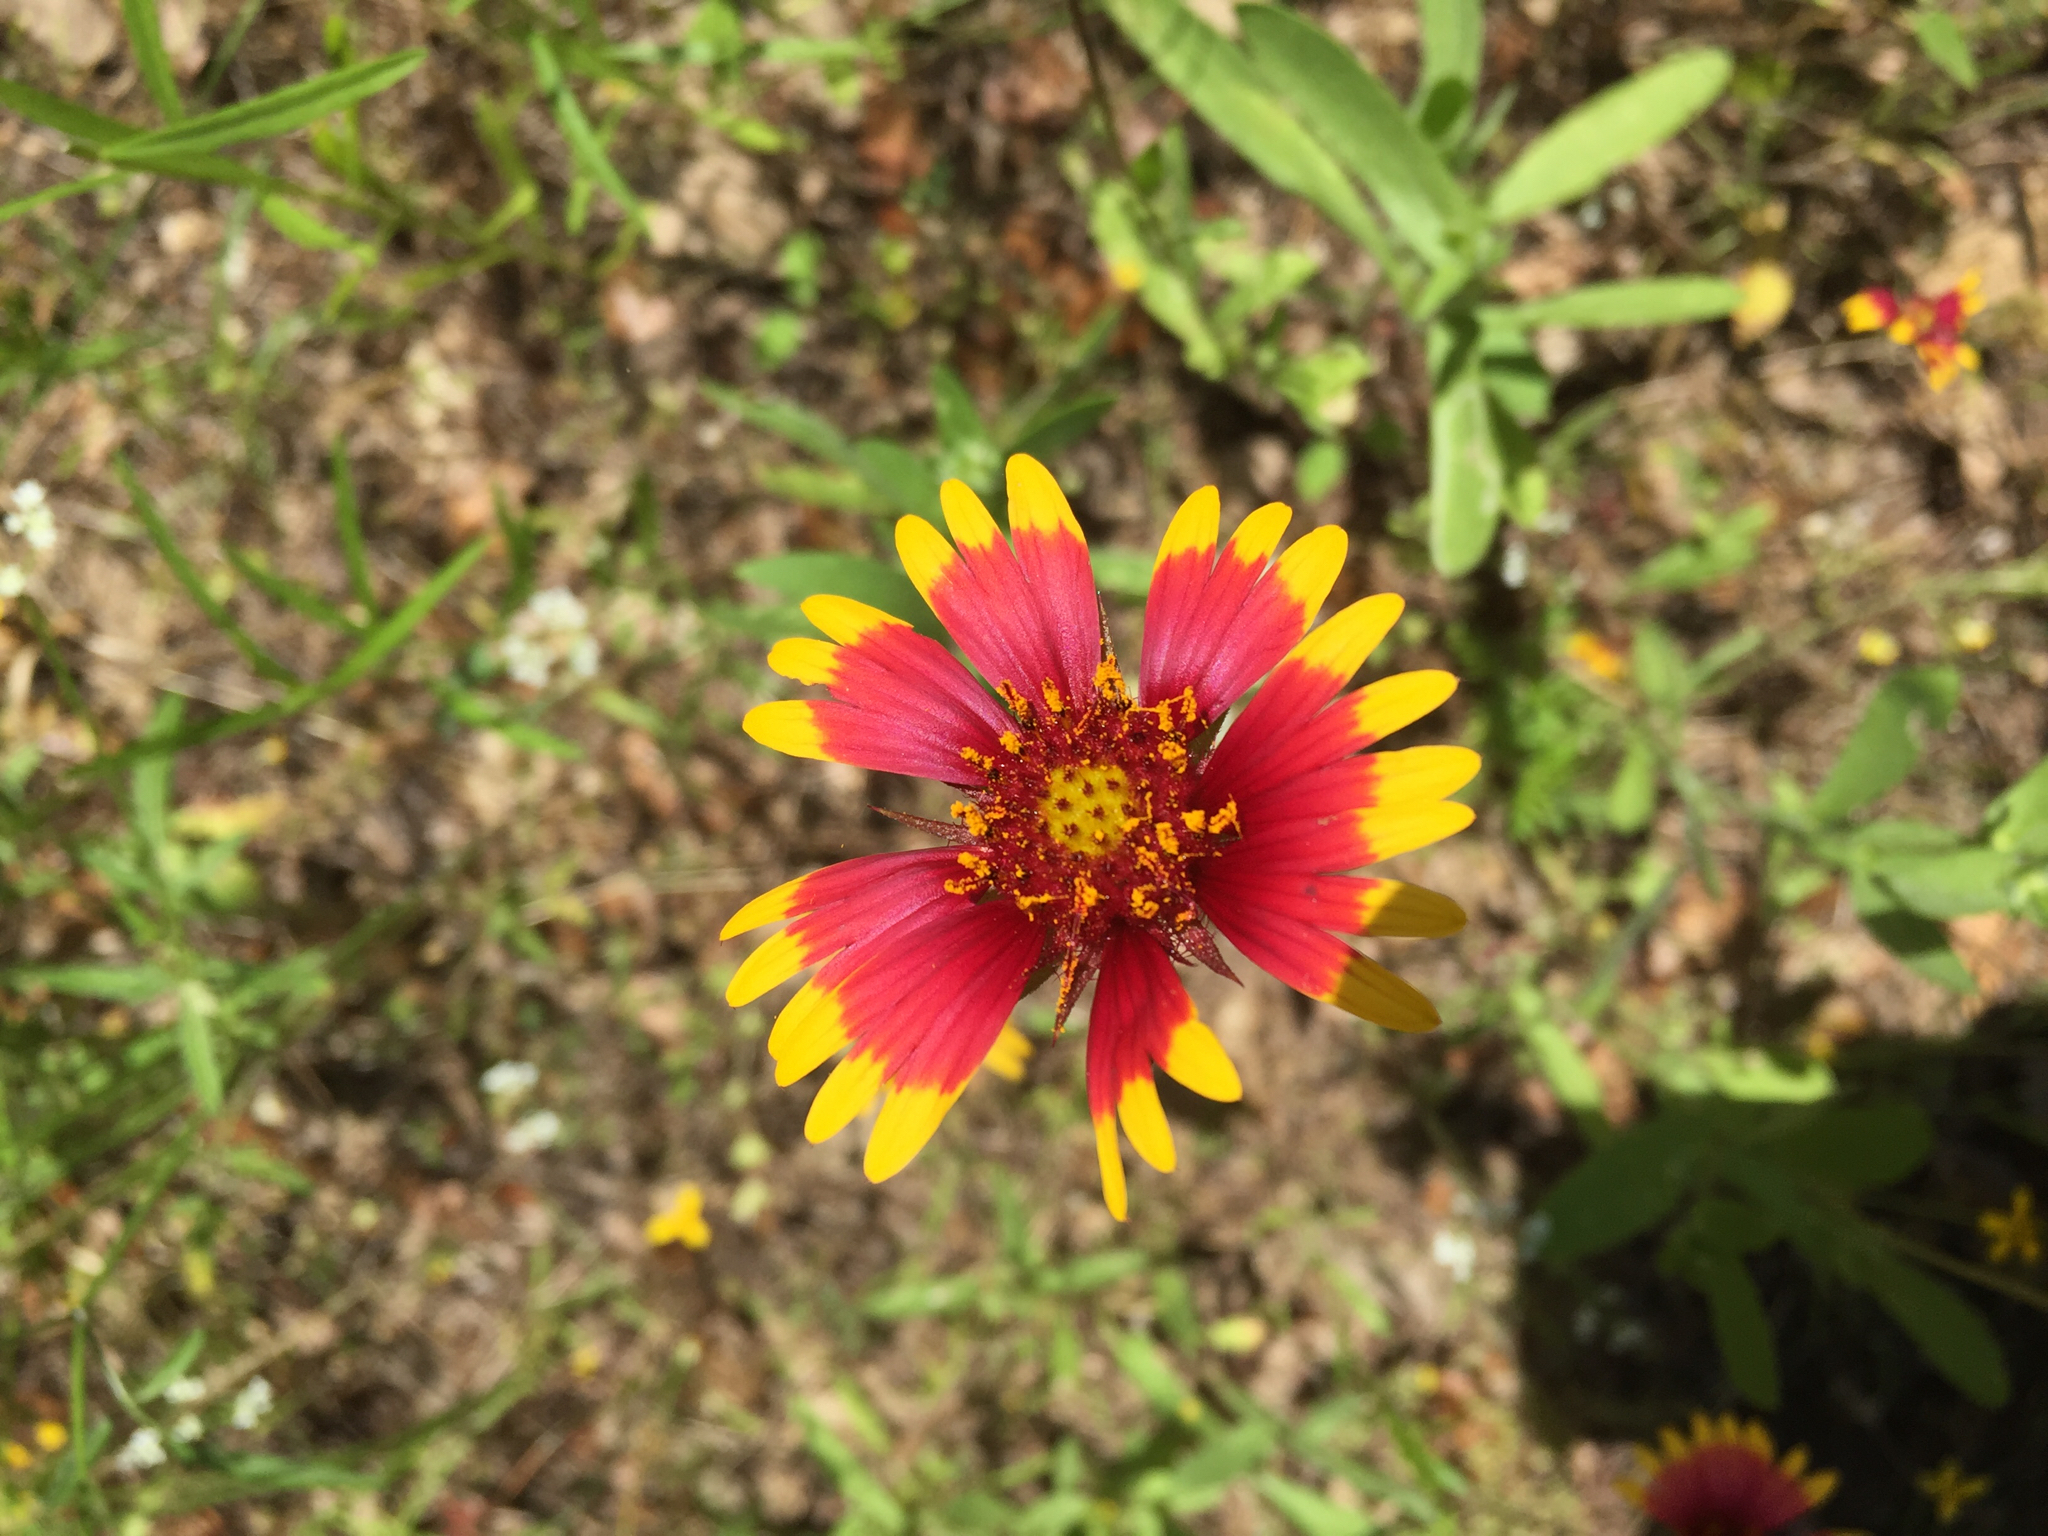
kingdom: Plantae
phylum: Tracheophyta
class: Magnoliopsida
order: Asterales
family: Asteraceae
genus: Gaillardia
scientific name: Gaillardia pulchella
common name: Firewheel
